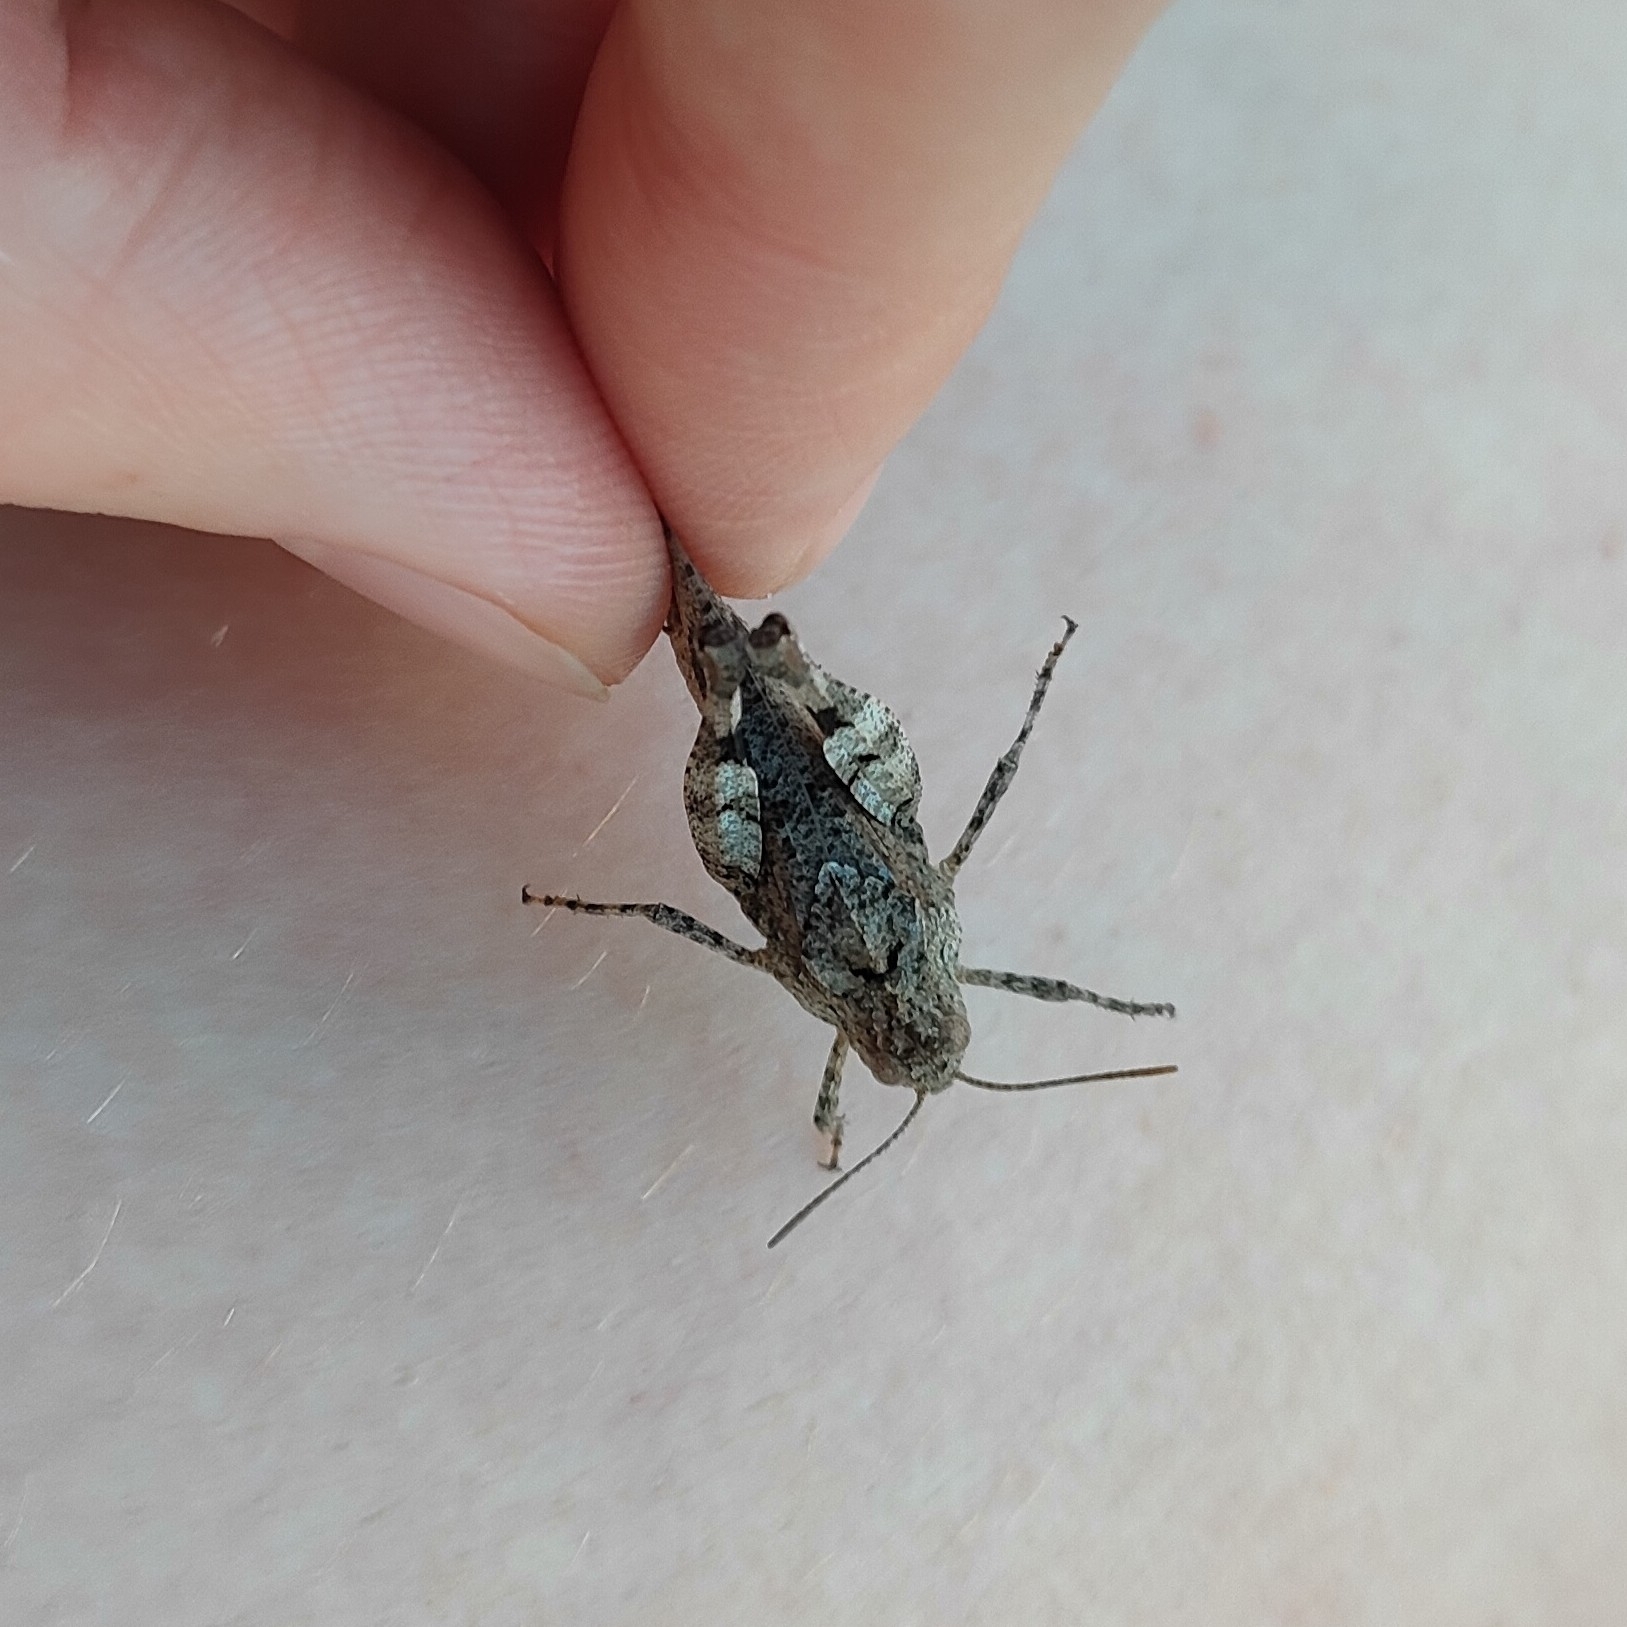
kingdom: Animalia
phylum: Arthropoda
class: Insecta
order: Orthoptera
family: Acrididae
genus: Oedipoda
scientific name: Oedipoda caerulescens
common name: Blue-winged grasshopper
